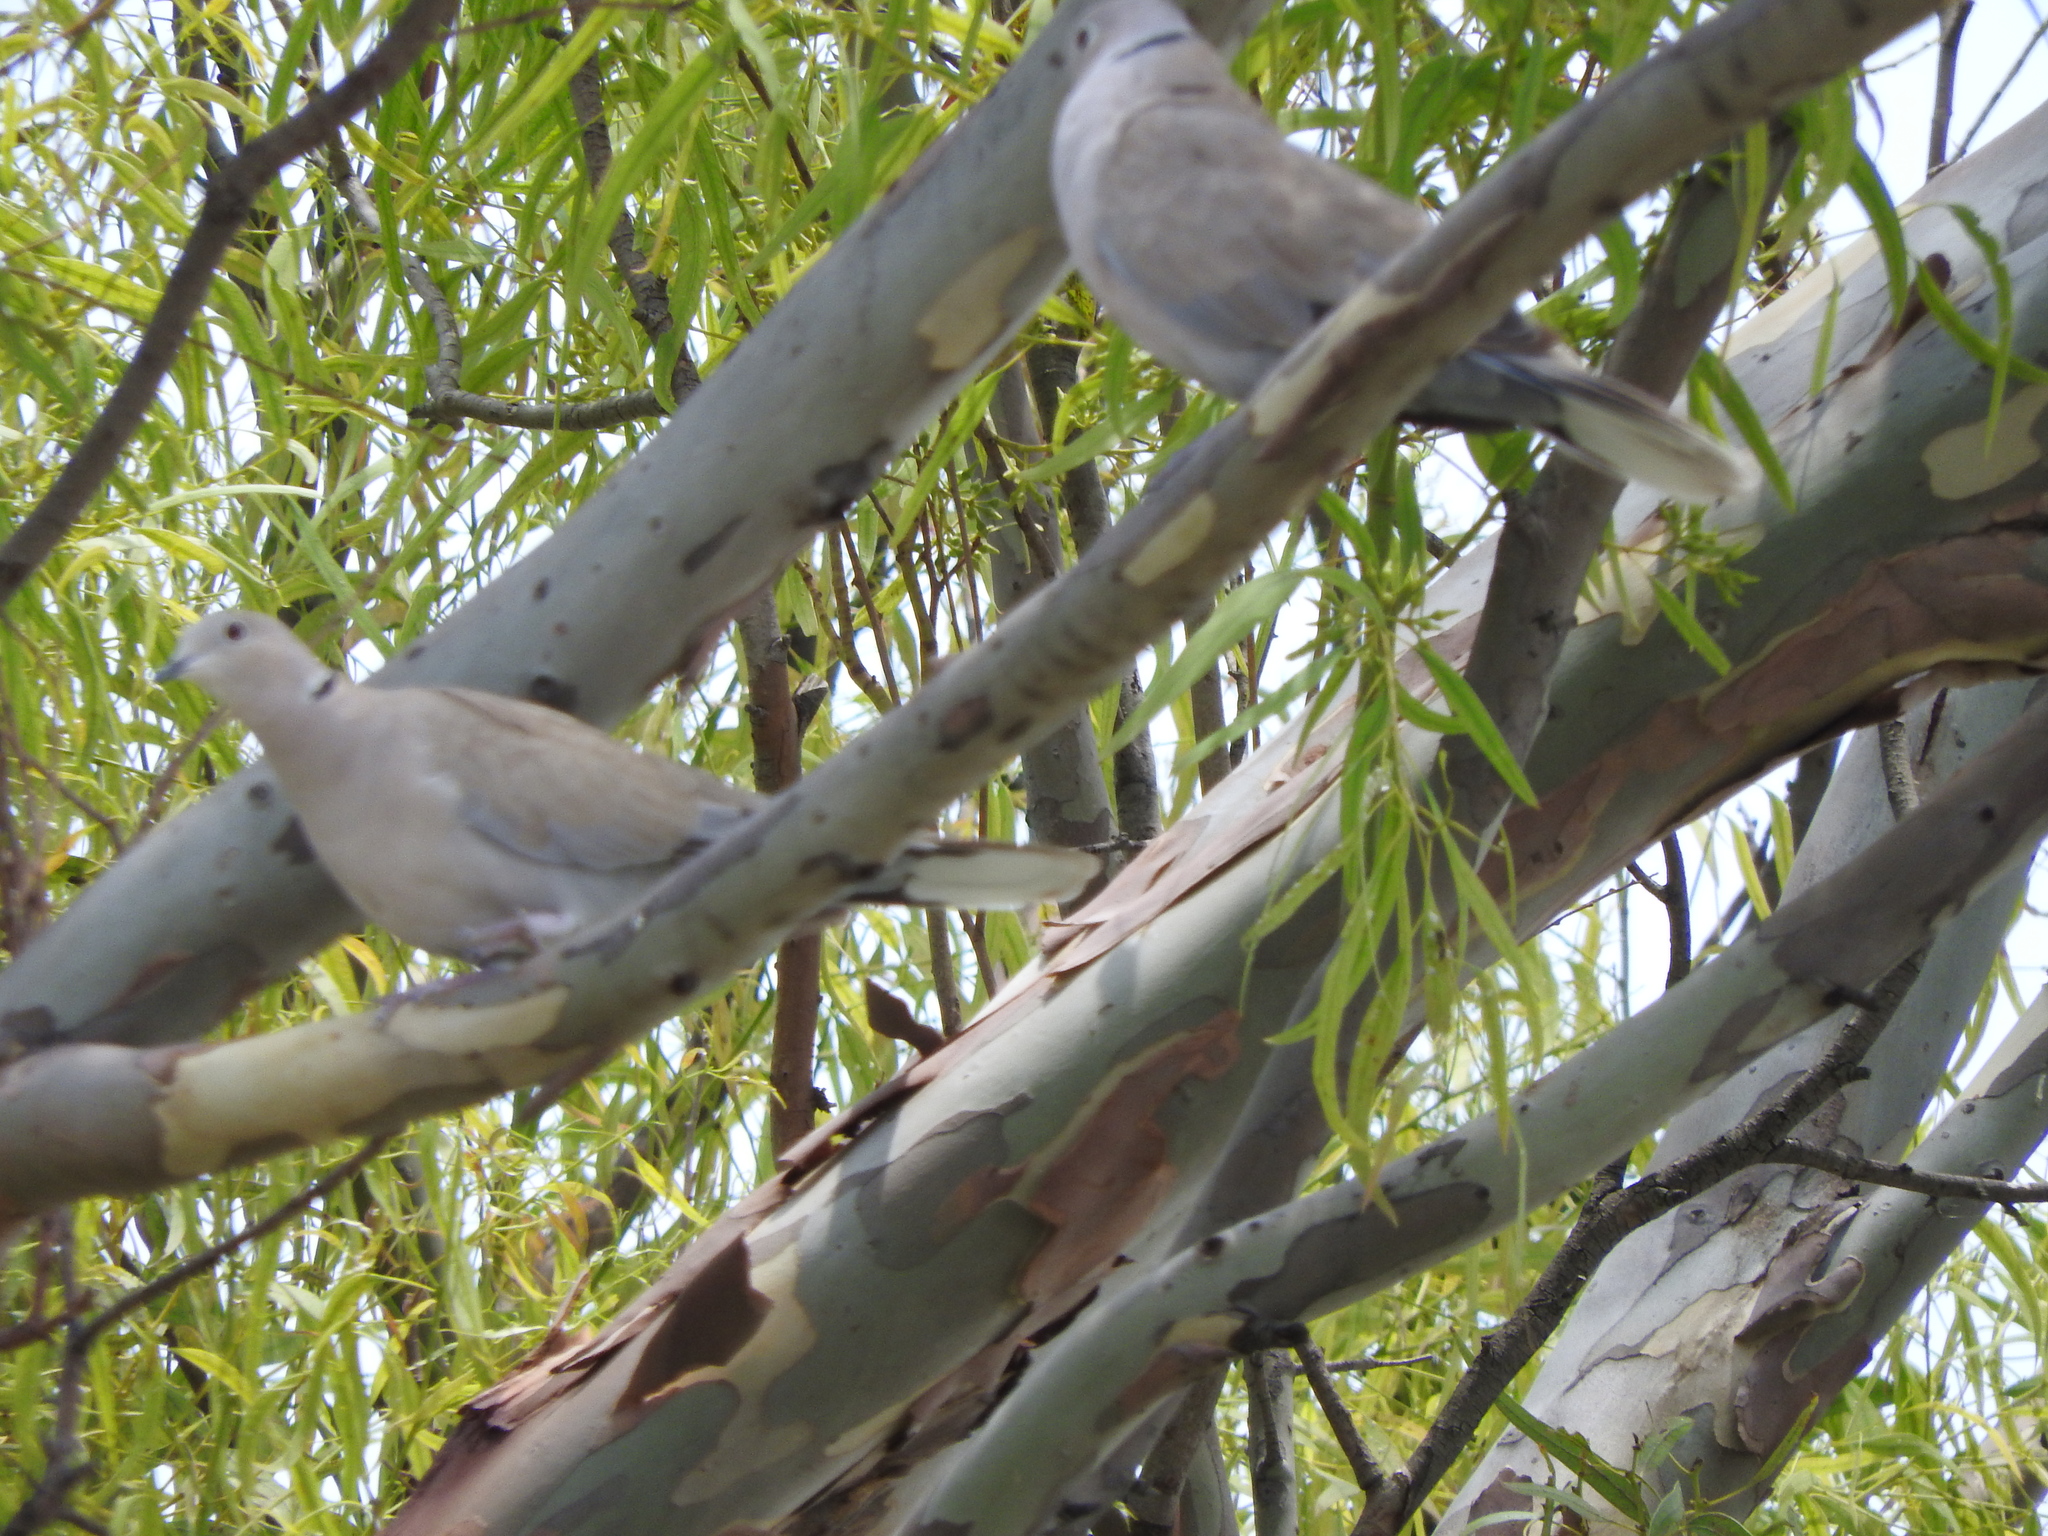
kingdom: Animalia
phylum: Chordata
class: Aves
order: Columbiformes
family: Columbidae
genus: Streptopelia
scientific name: Streptopelia decaocto
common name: Eurasian collared dove
